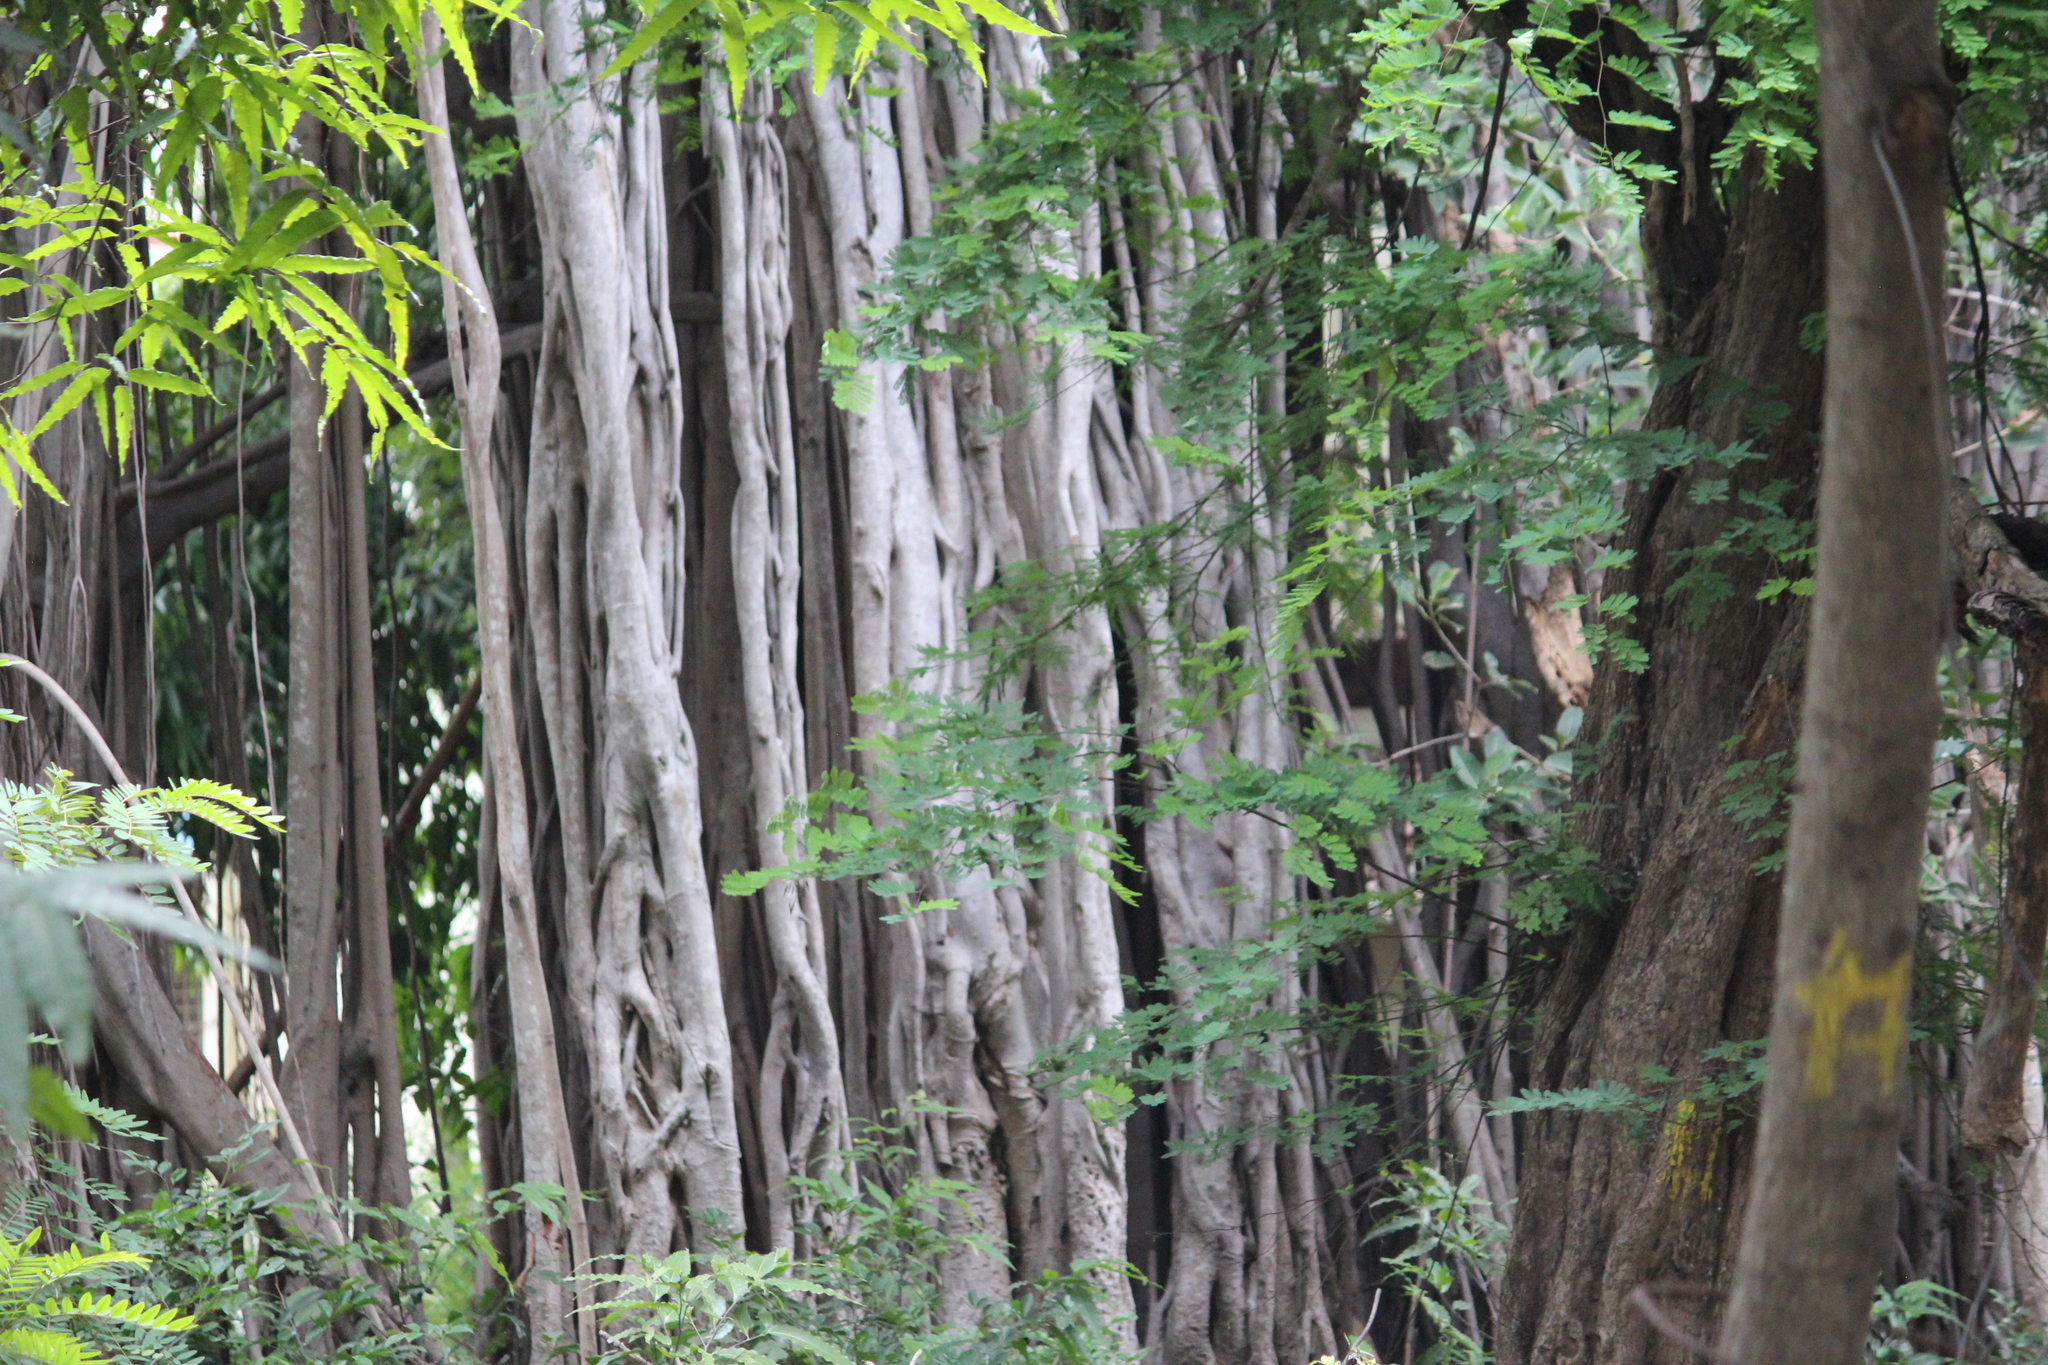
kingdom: Plantae
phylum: Tracheophyta
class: Magnoliopsida
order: Rosales
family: Moraceae
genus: Ficus
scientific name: Ficus benghalensis
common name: Indian banyan
